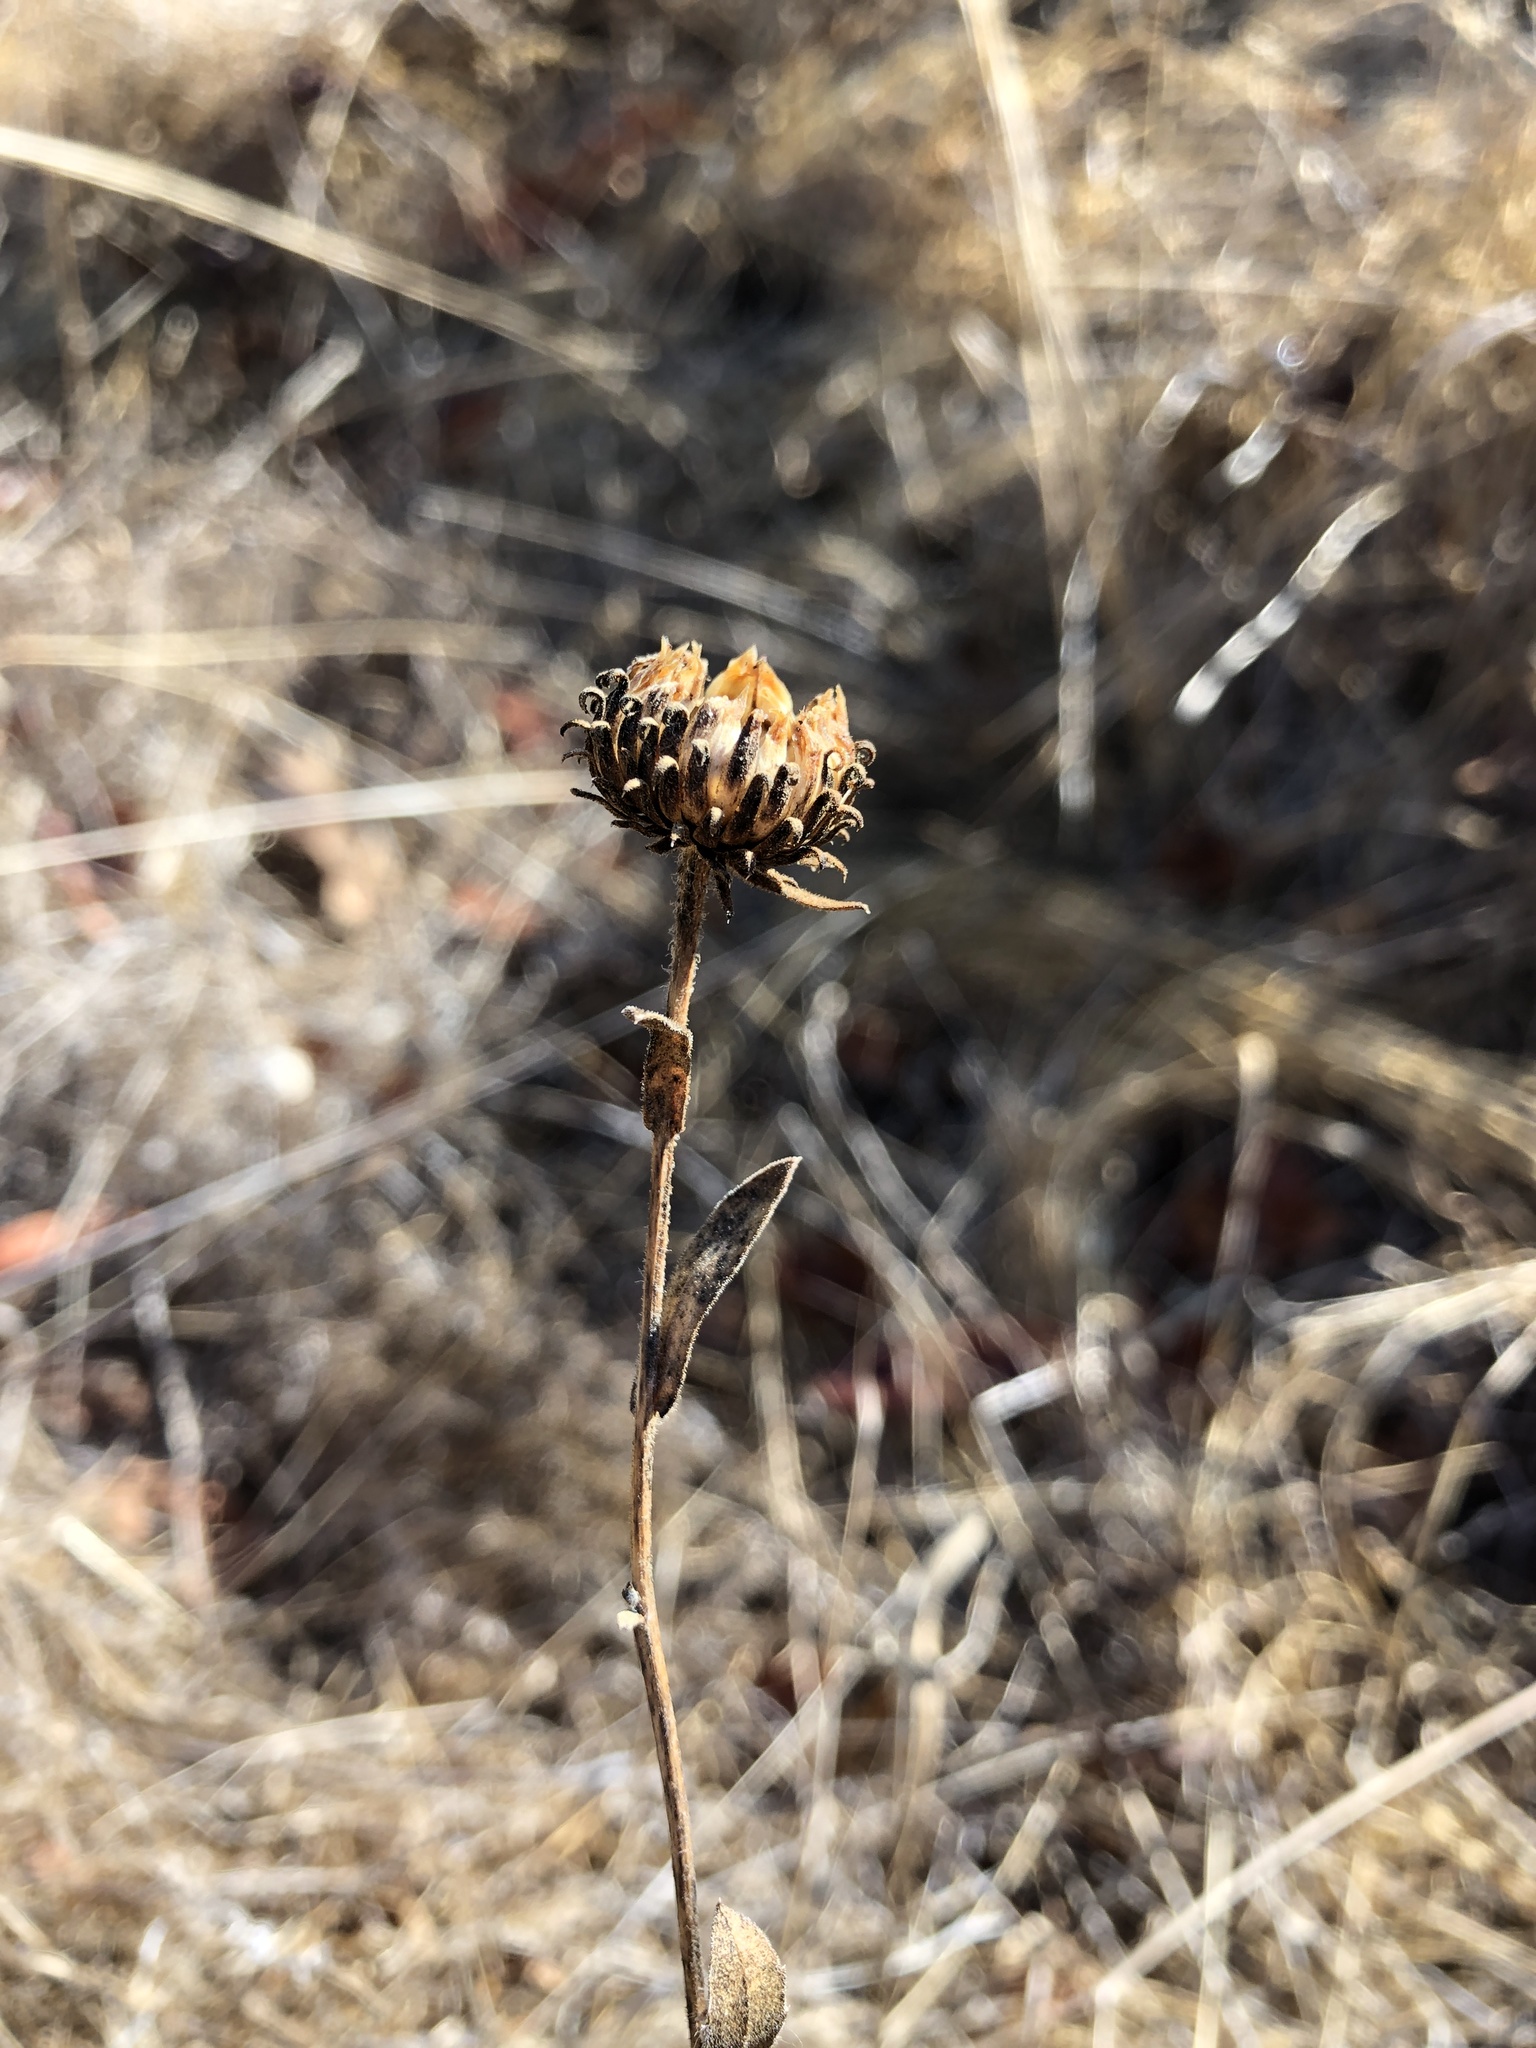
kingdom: Plantae
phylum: Tracheophyta
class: Magnoliopsida
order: Asterales
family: Asteraceae
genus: Grindelia
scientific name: Grindelia hirsutula
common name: Hairy gumweed
